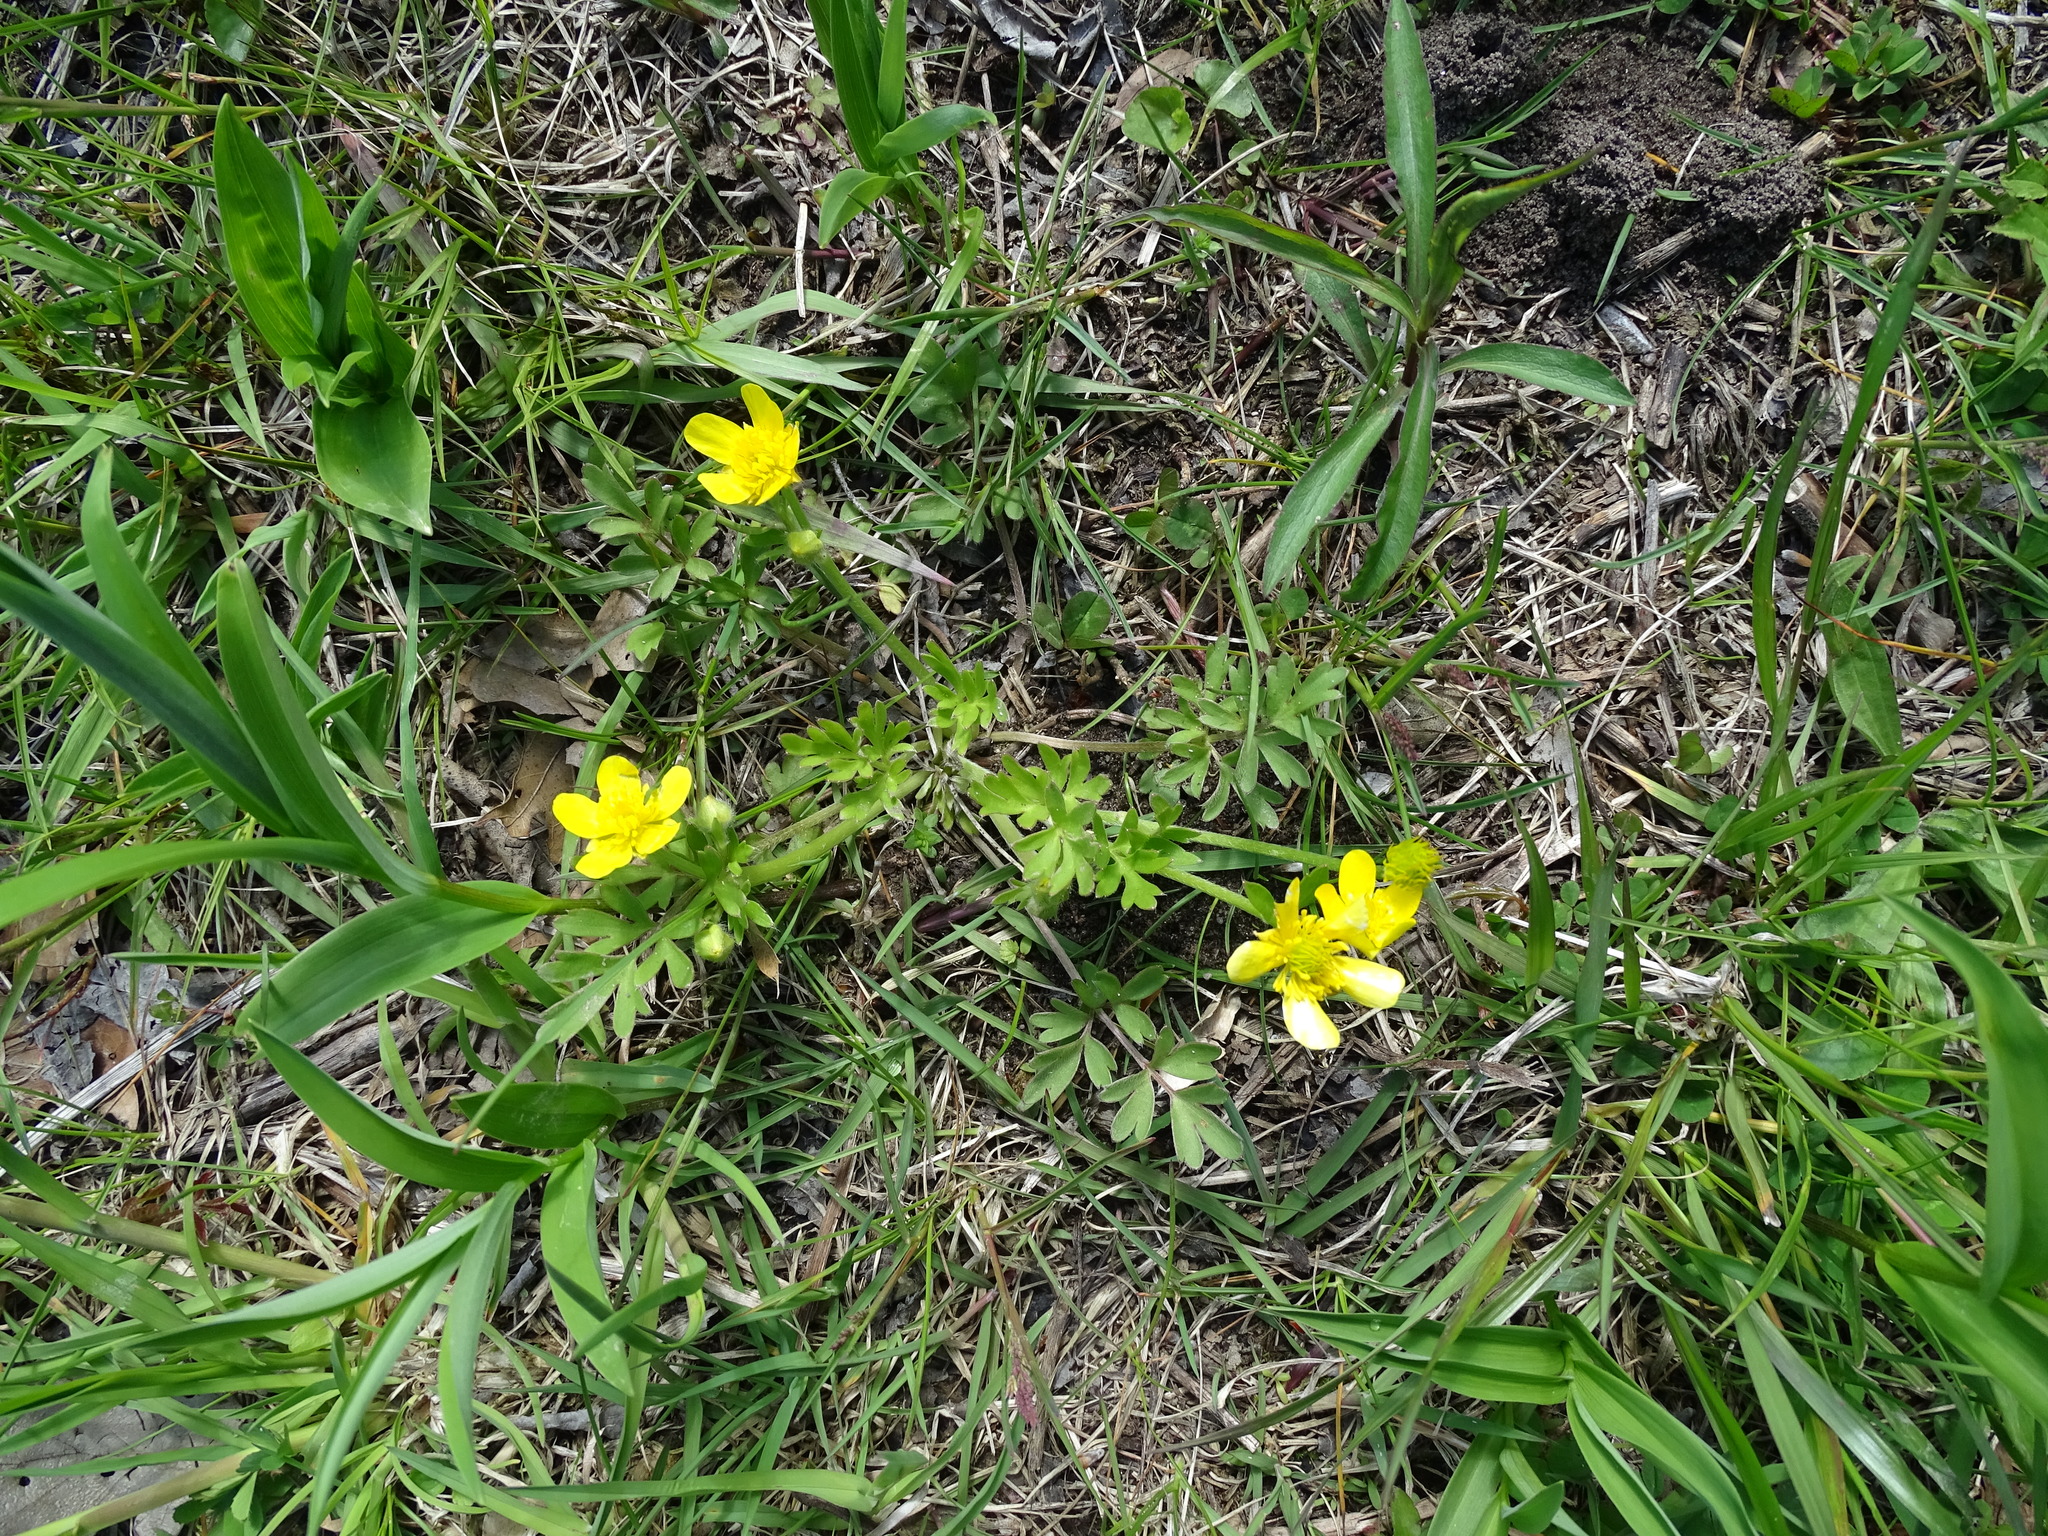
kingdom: Plantae
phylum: Tracheophyta
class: Magnoliopsida
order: Ranunculales
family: Ranunculaceae
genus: Ranunculus
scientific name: Ranunculus fascicularis
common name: Early buttercup
